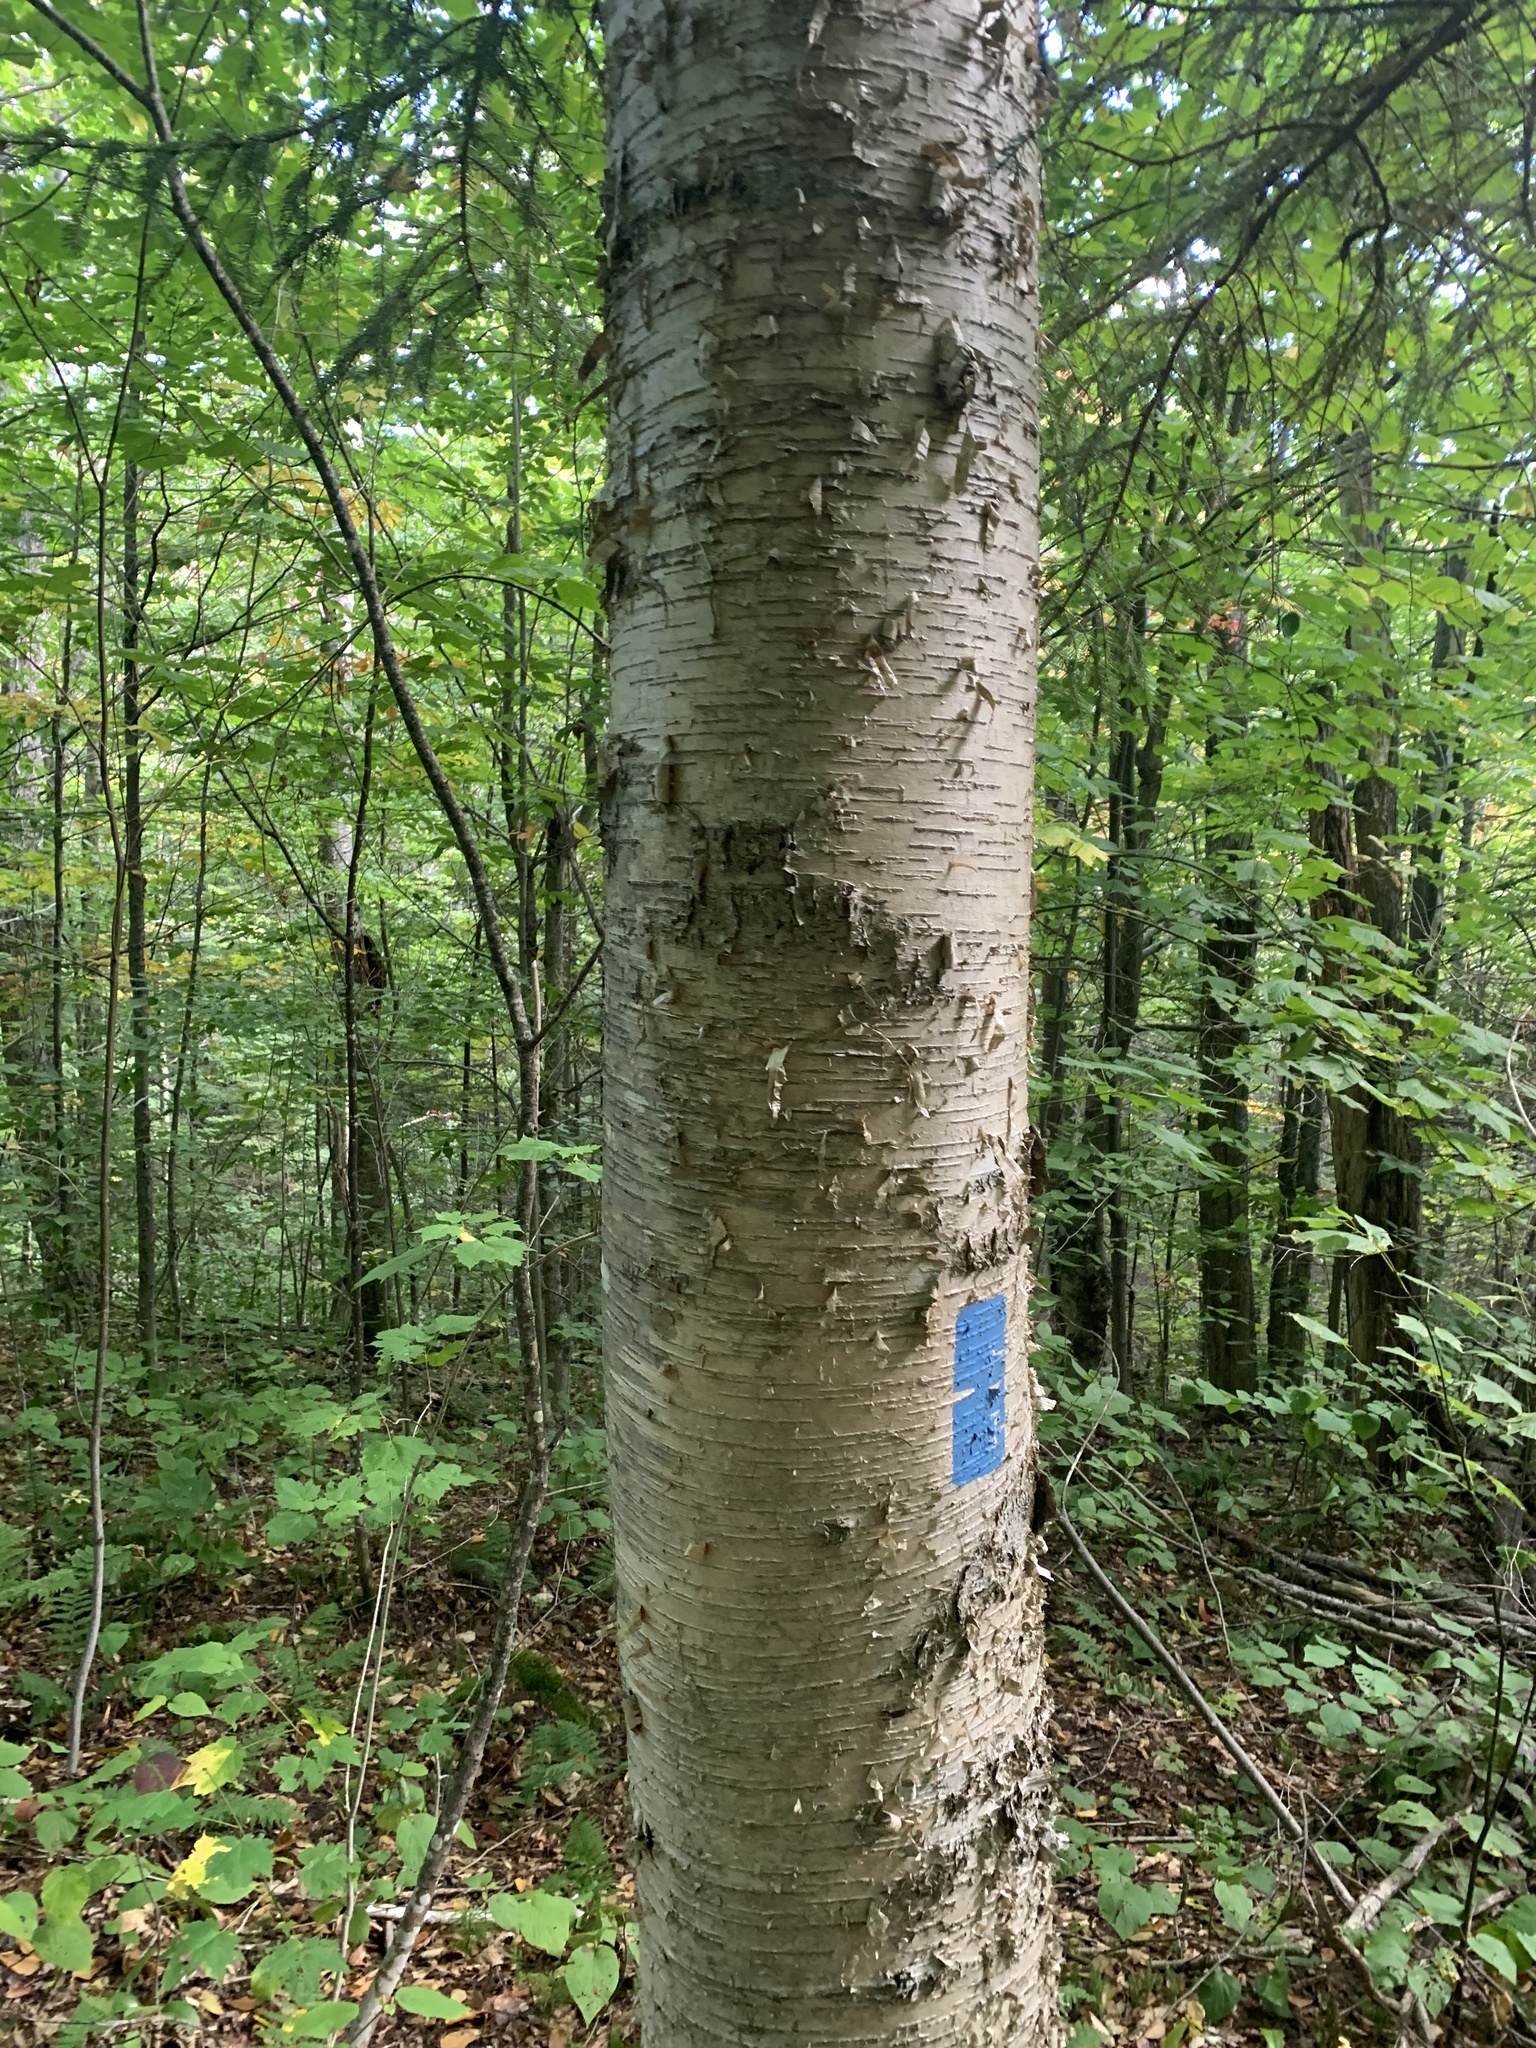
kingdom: Plantae
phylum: Tracheophyta
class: Magnoliopsida
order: Fagales
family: Betulaceae
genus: Betula
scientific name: Betula alleghaniensis
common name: Yellow birch
